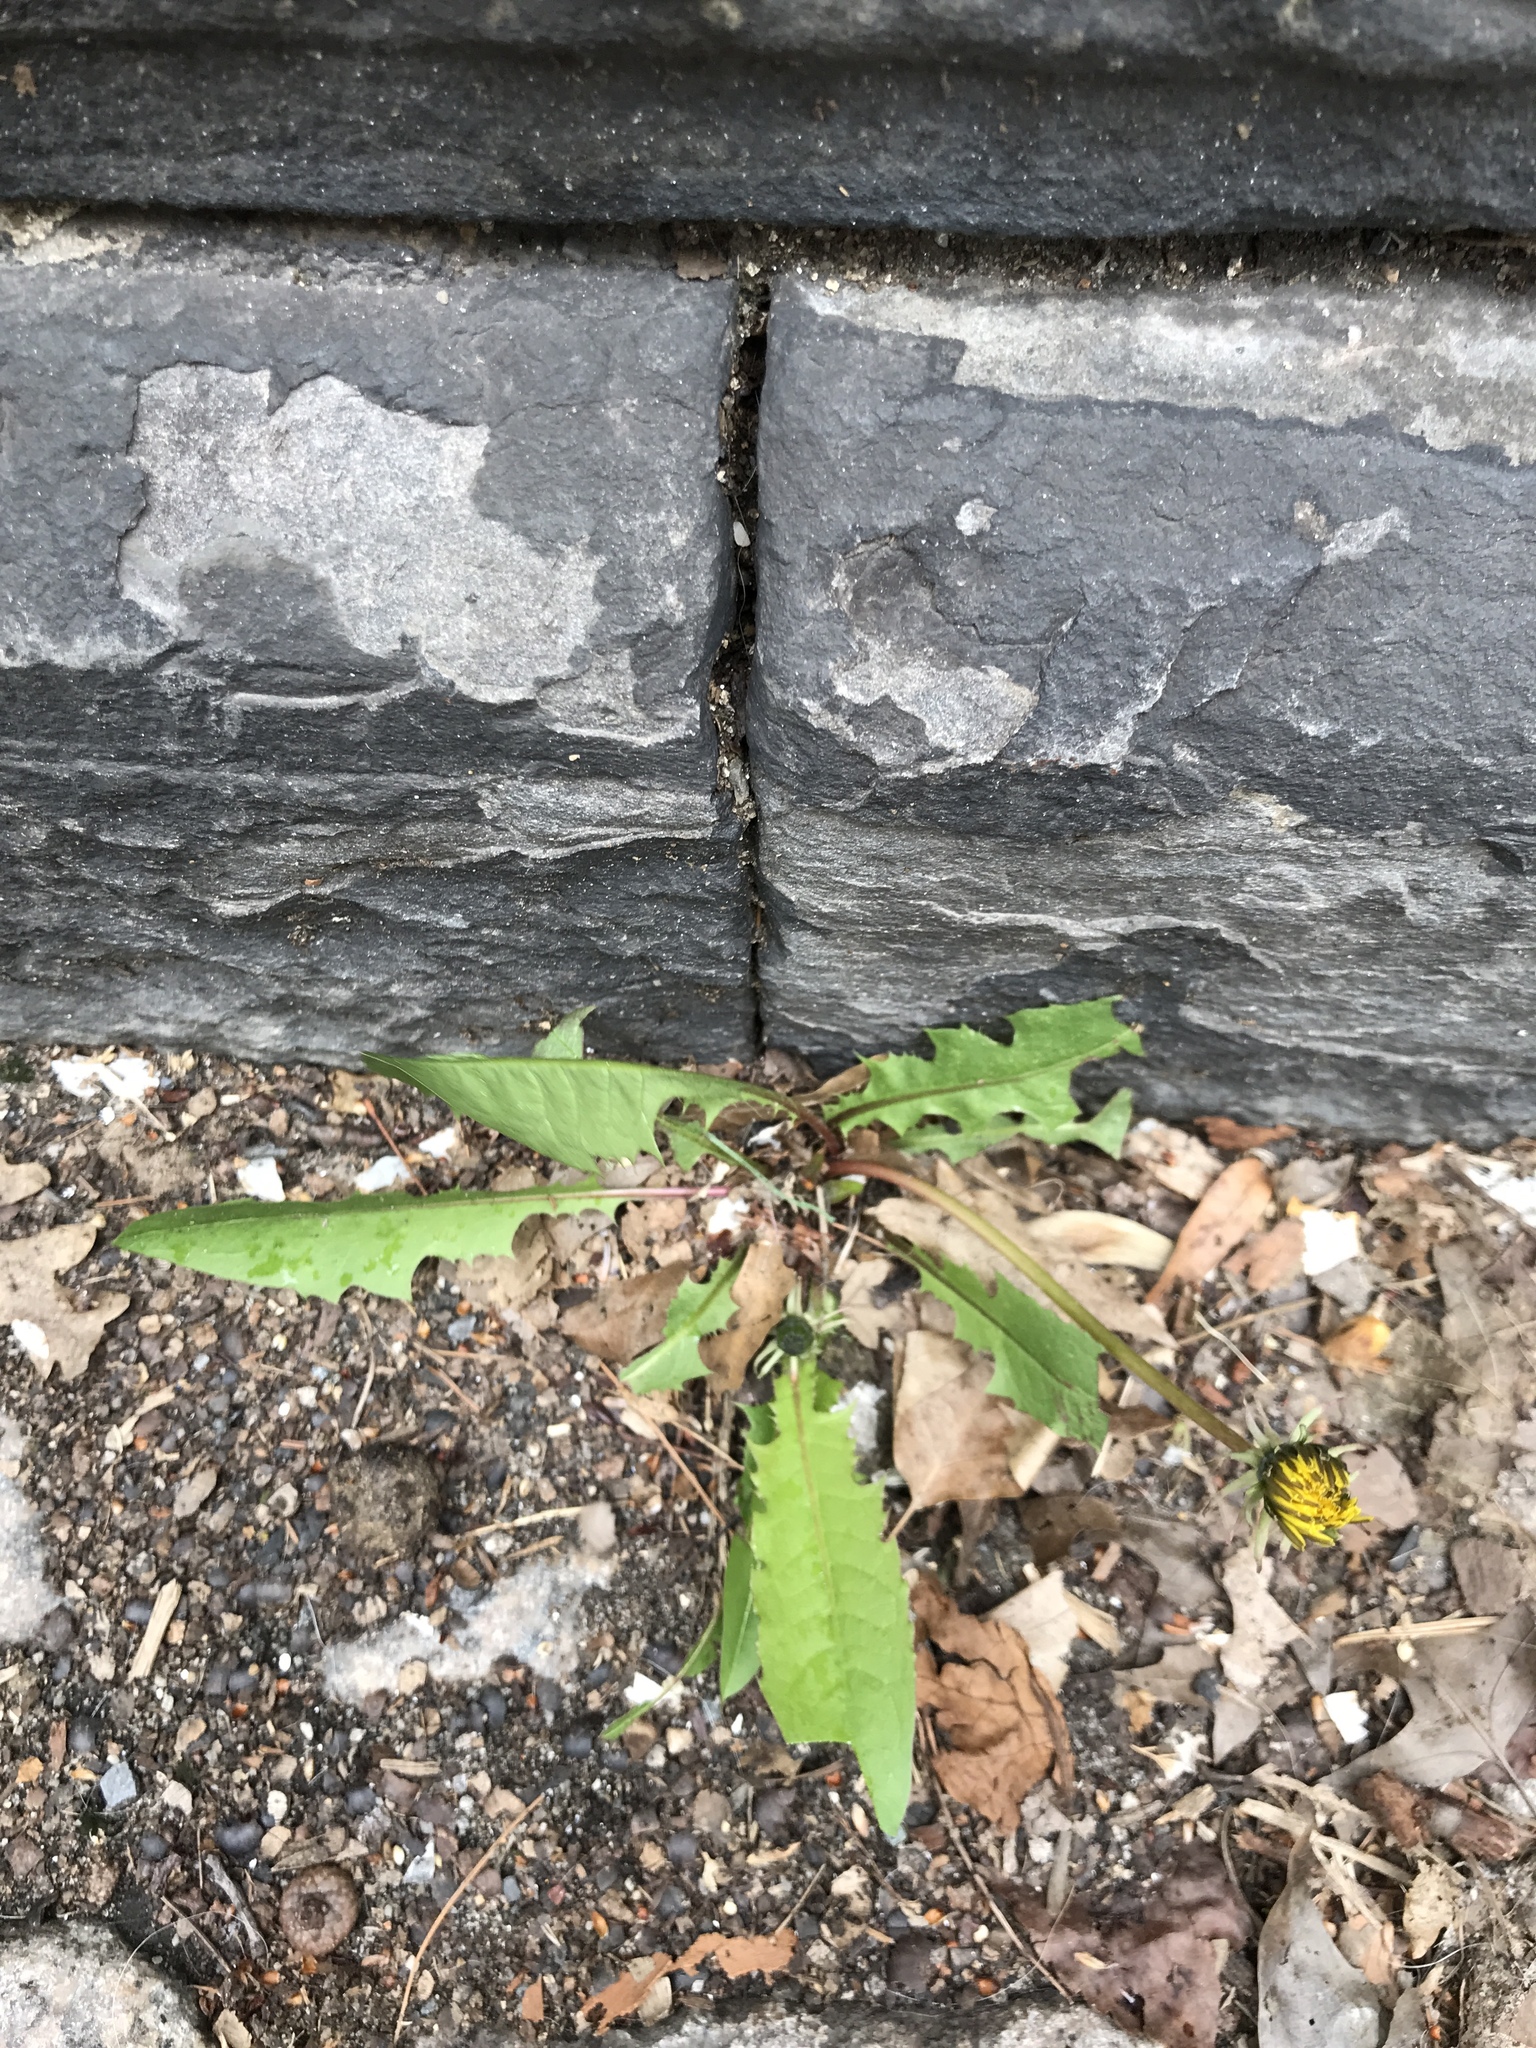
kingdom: Plantae
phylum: Tracheophyta
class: Magnoliopsida
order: Asterales
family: Asteraceae
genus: Taraxacum
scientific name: Taraxacum
